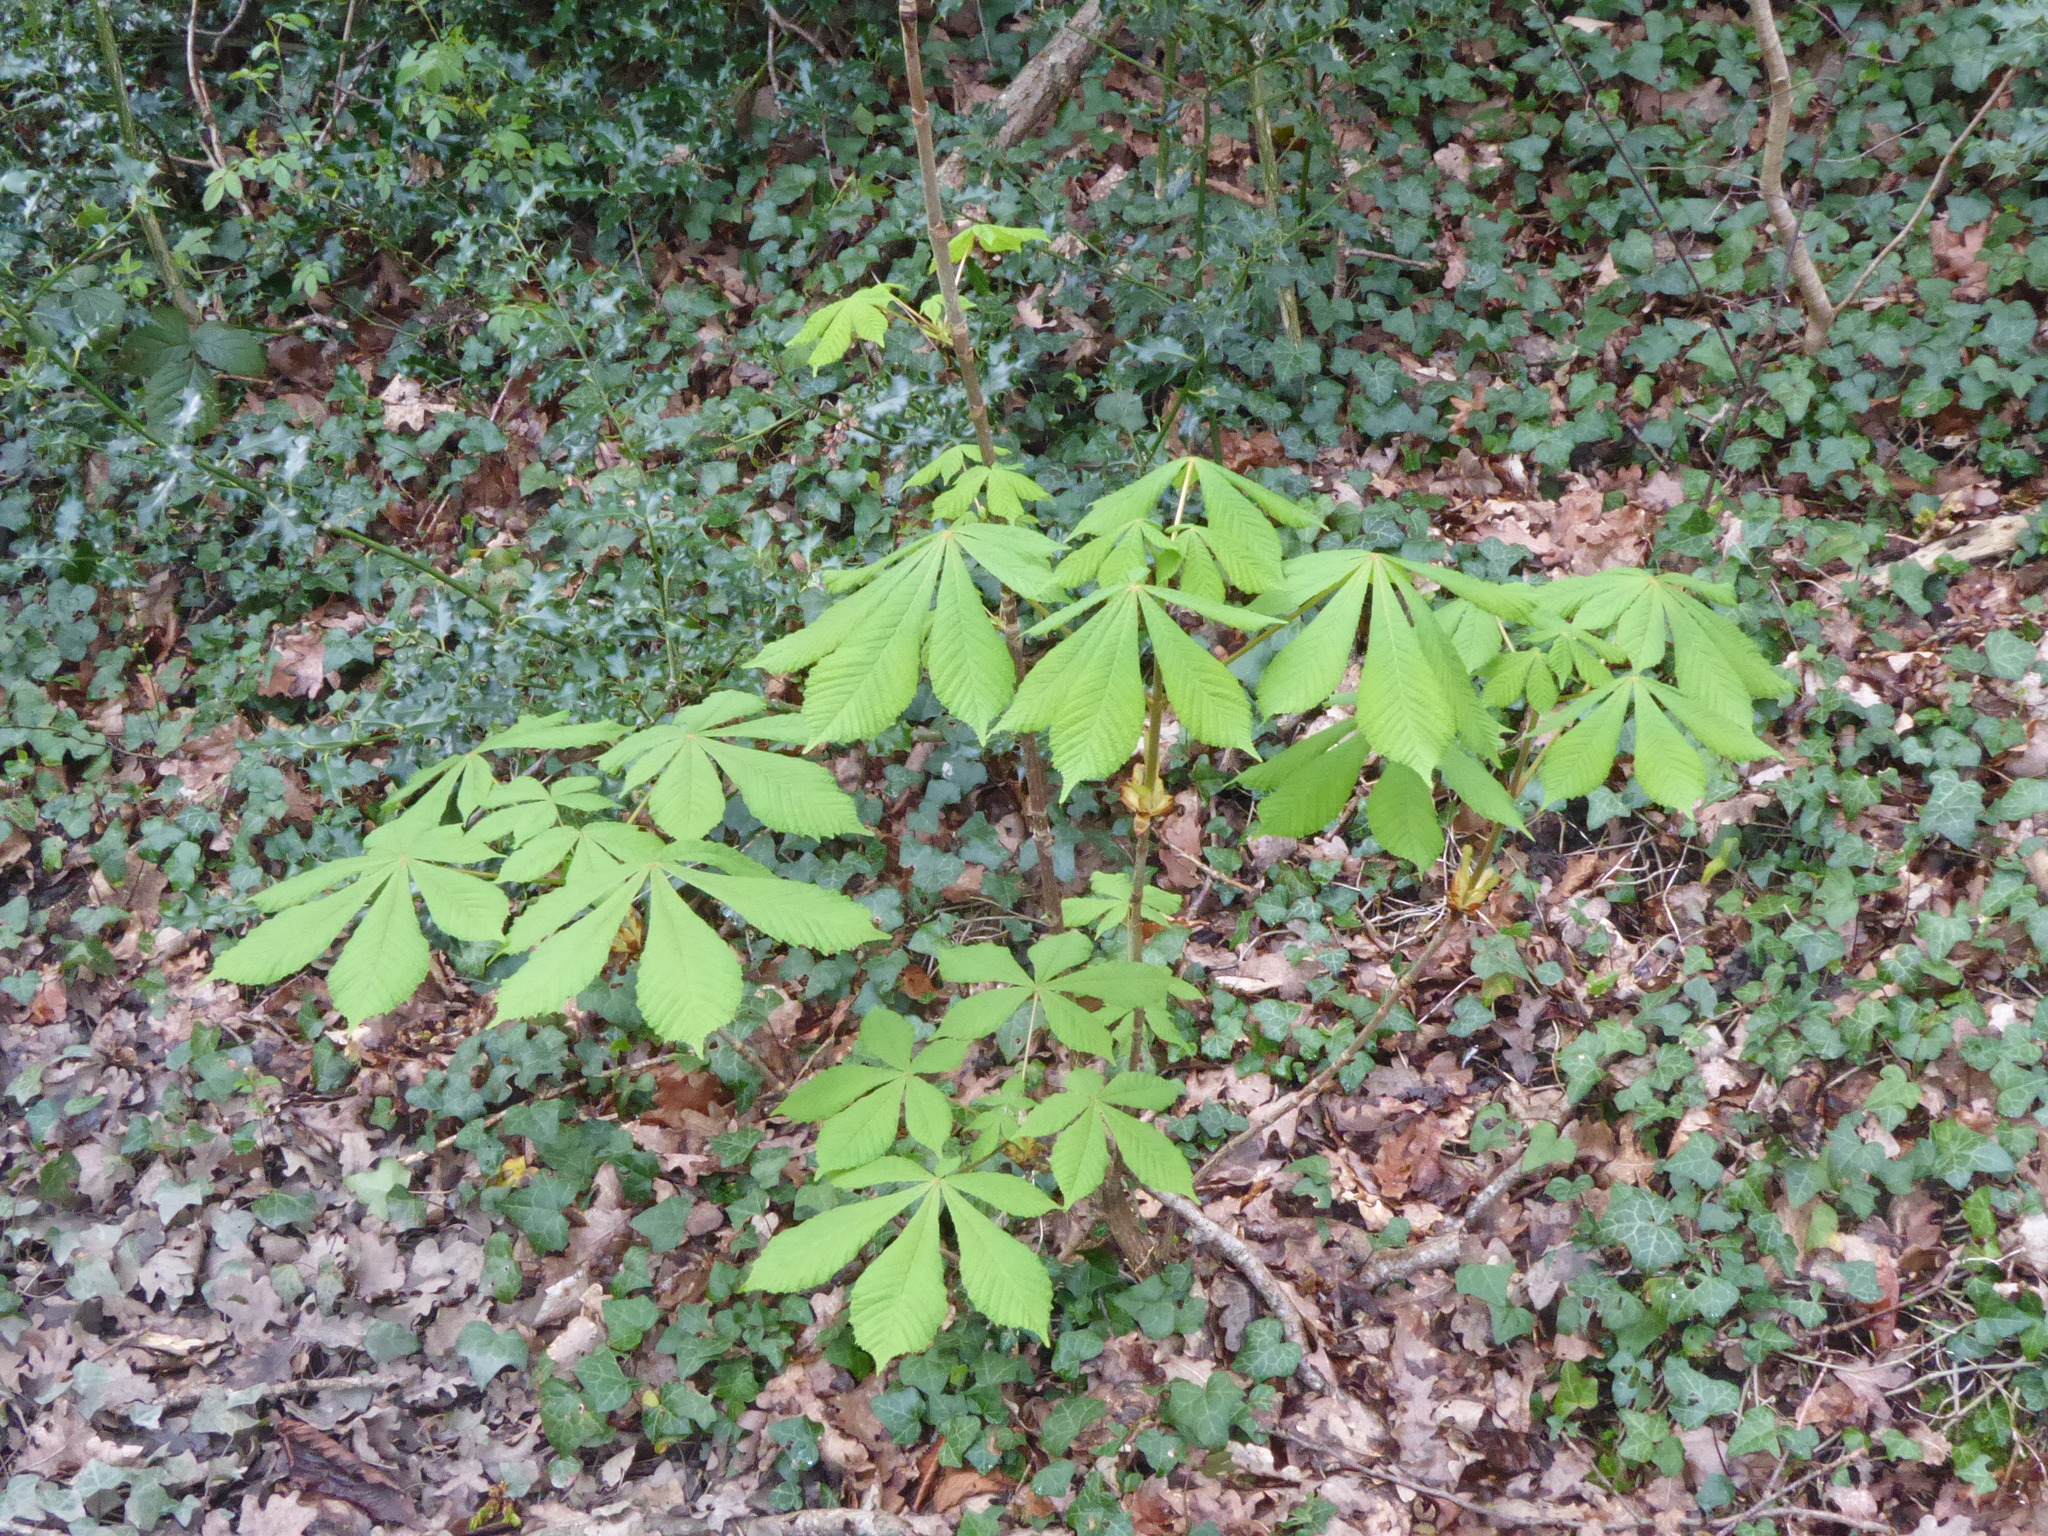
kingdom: Plantae
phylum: Tracheophyta
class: Magnoliopsida
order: Sapindales
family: Sapindaceae
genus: Aesculus
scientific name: Aesculus hippocastanum
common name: Horse-chestnut
